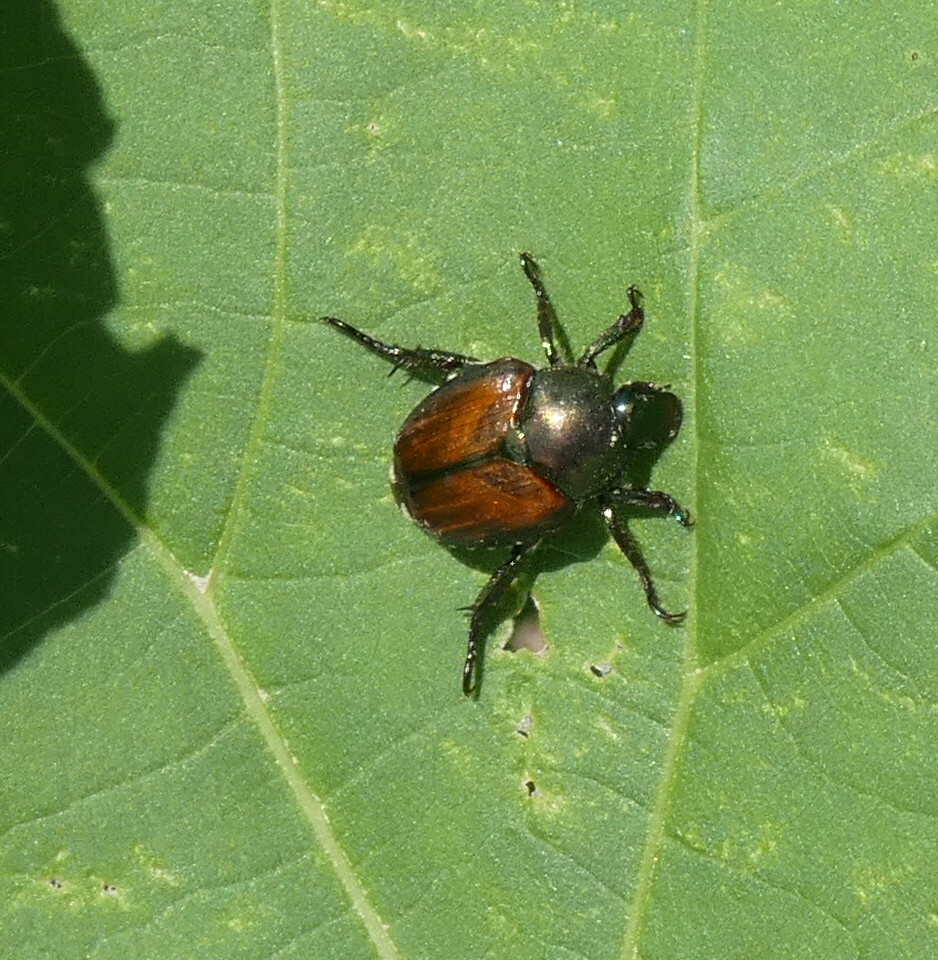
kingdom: Animalia
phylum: Arthropoda
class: Insecta
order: Coleoptera
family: Scarabaeidae
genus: Popillia
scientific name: Popillia japonica
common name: Japanese beetle
